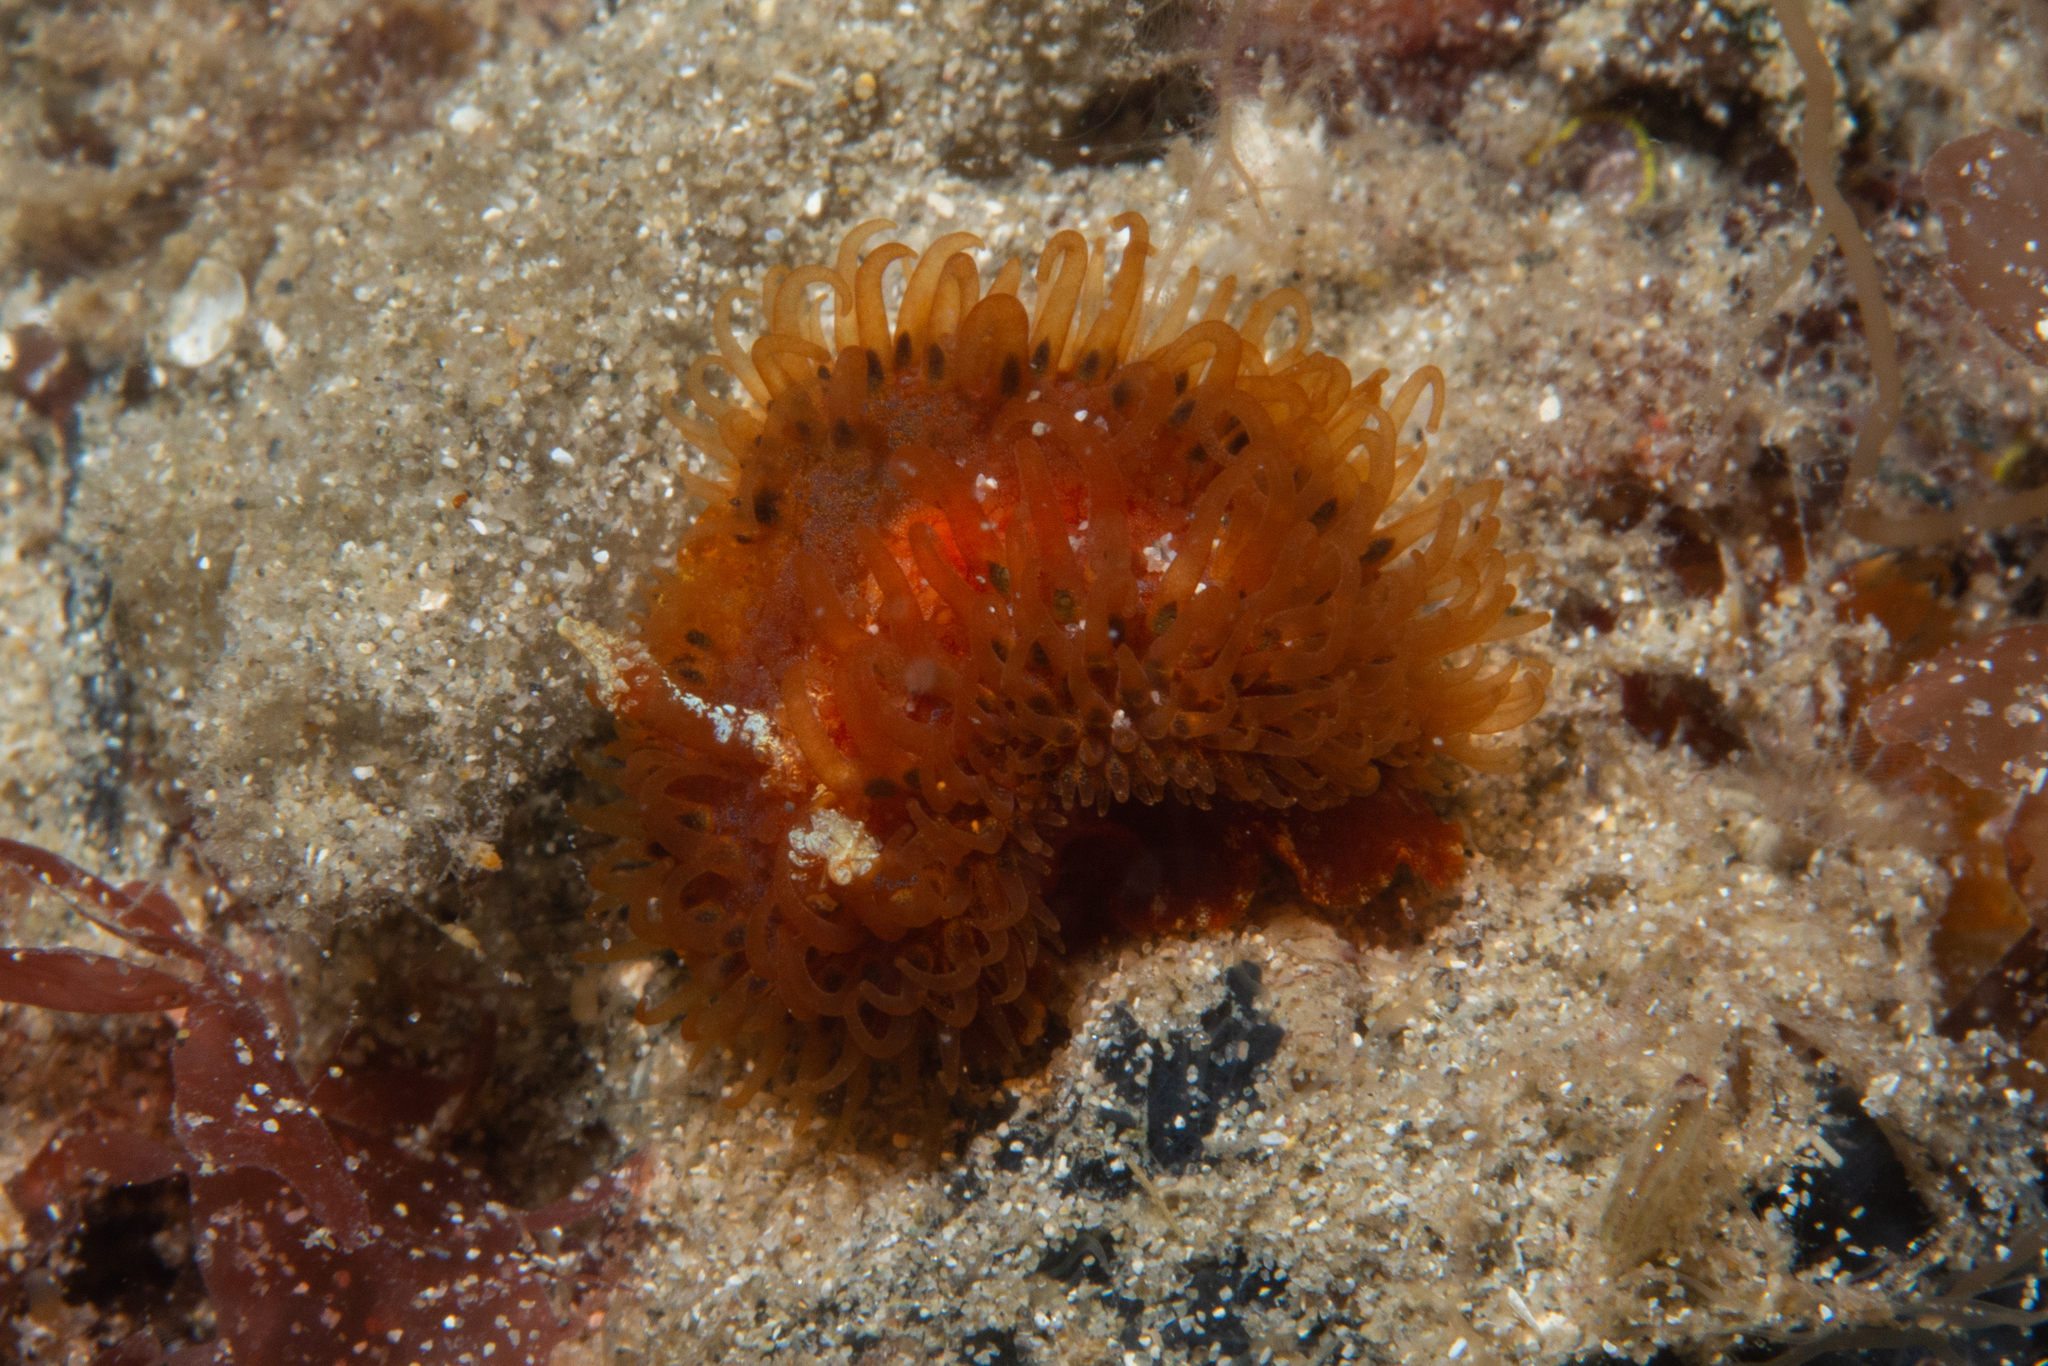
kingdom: Animalia
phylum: Mollusca
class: Gastropoda
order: Nudibranchia
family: Madrellidae
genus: Madrella
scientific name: Madrella ferruginosa
